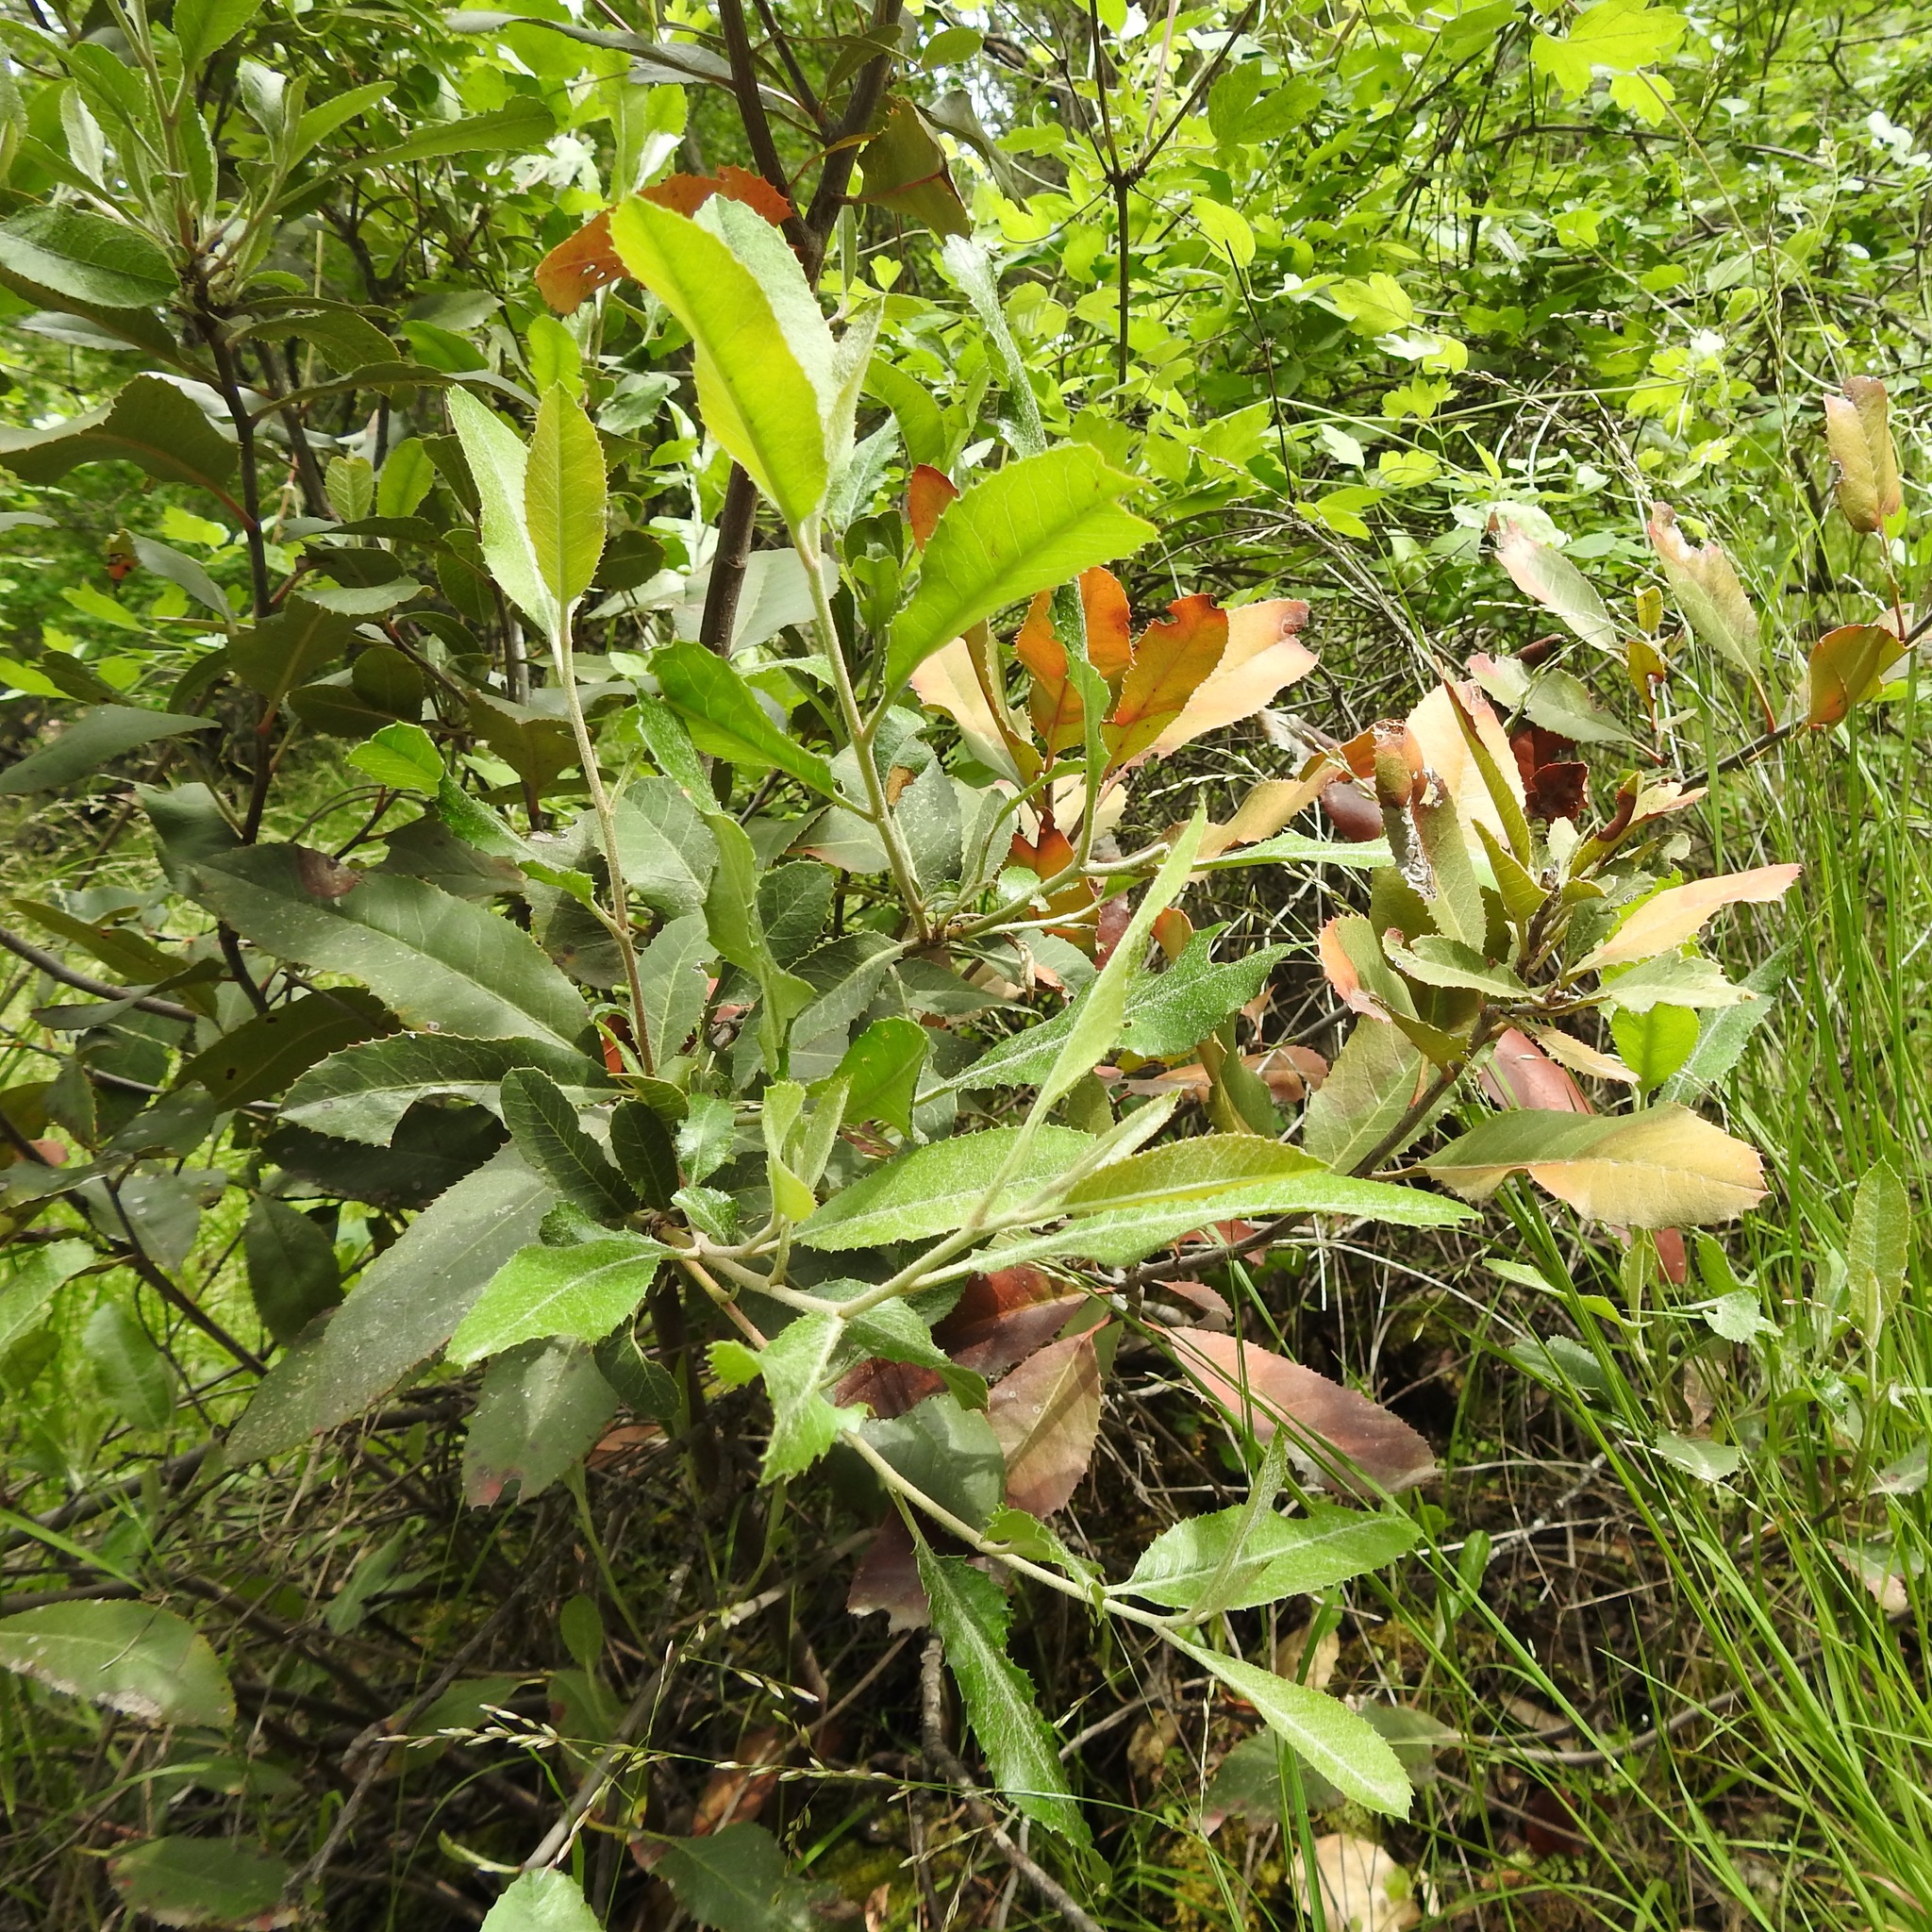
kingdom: Plantae
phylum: Tracheophyta
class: Magnoliopsida
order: Rosales
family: Rosaceae
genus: Heteromeles
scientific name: Heteromeles arbutifolia
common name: California-holly
